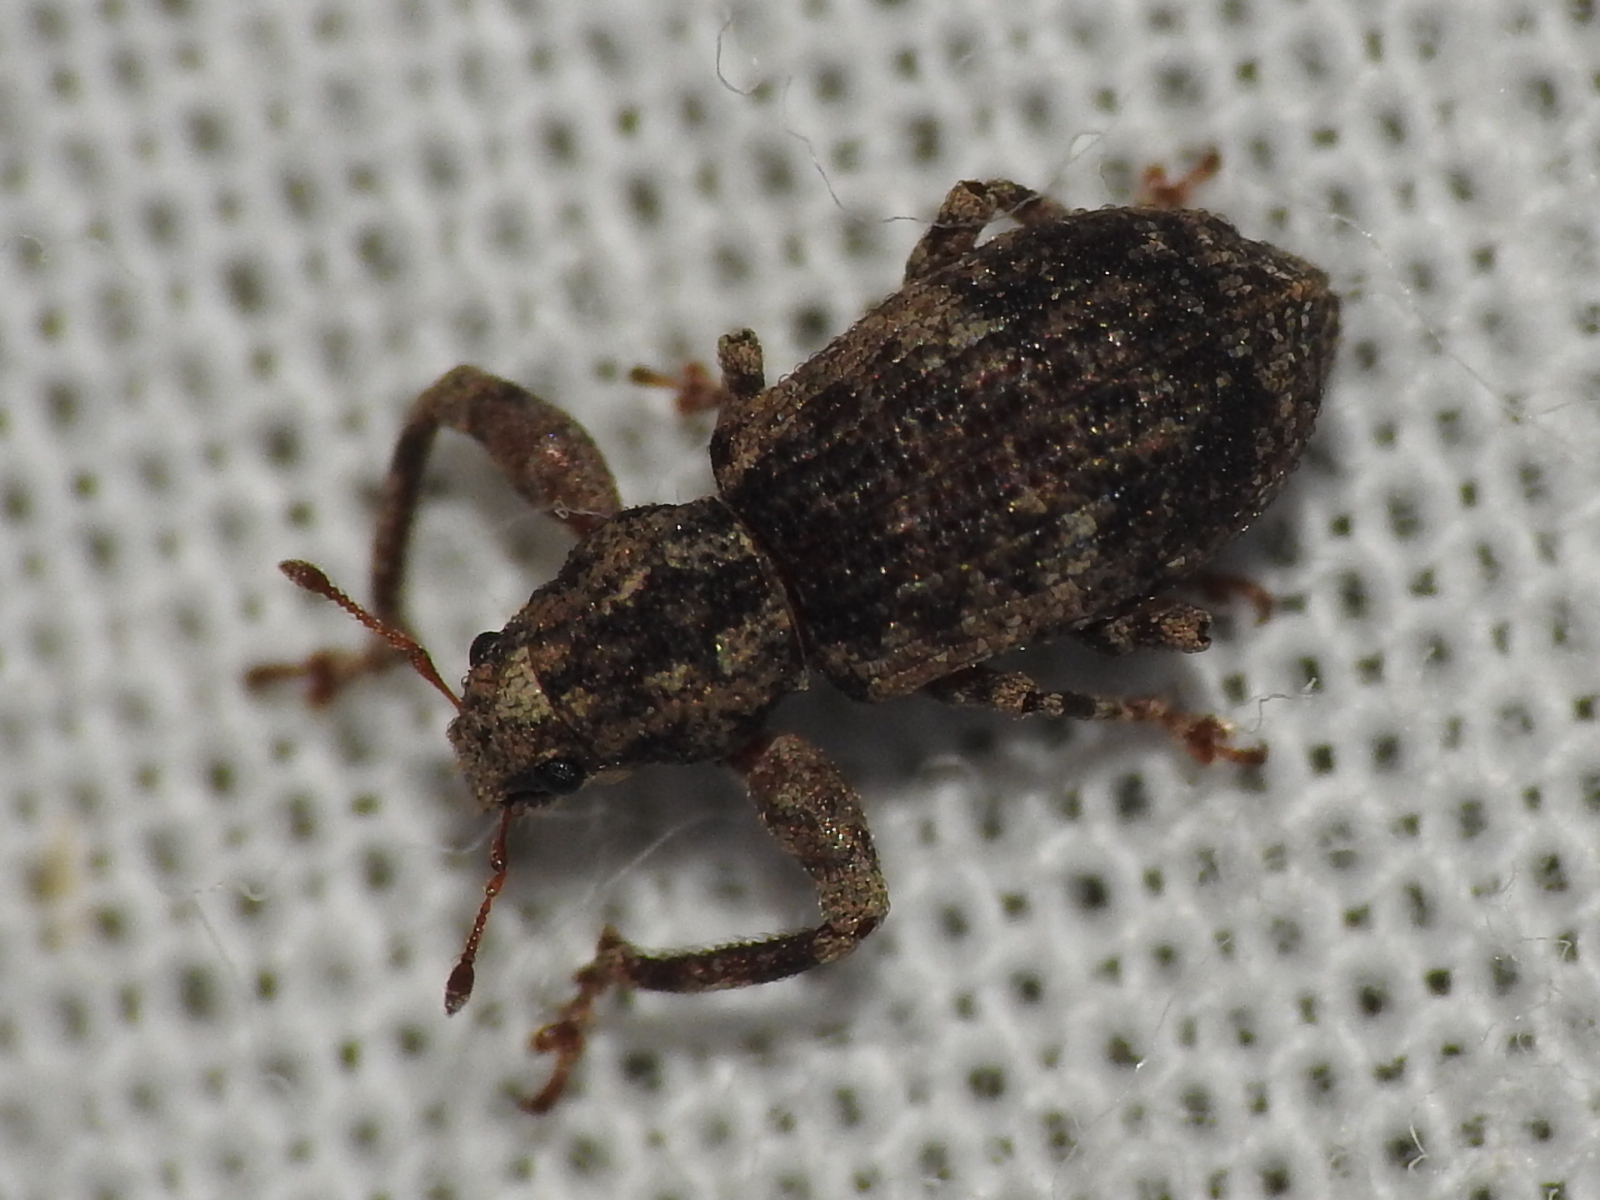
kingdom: Animalia
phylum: Arthropoda
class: Insecta
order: Coleoptera
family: Curculionidae
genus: Pandeleteius
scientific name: Pandeleteius hilaris
